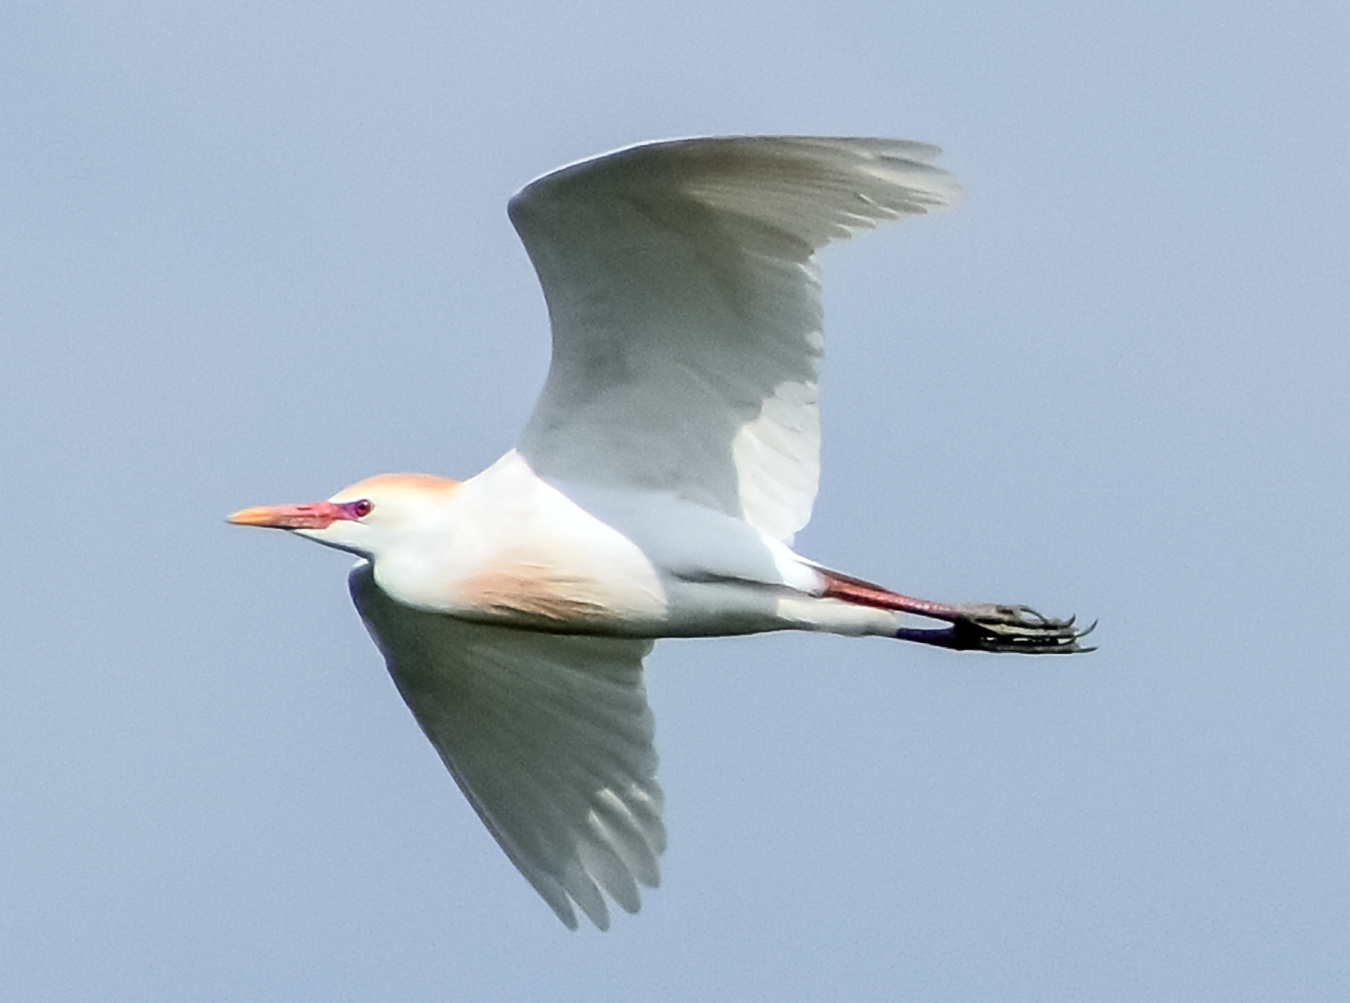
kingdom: Animalia
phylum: Chordata
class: Aves
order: Pelecaniformes
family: Ardeidae
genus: Bubulcus
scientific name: Bubulcus ibis
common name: Cattle egret
